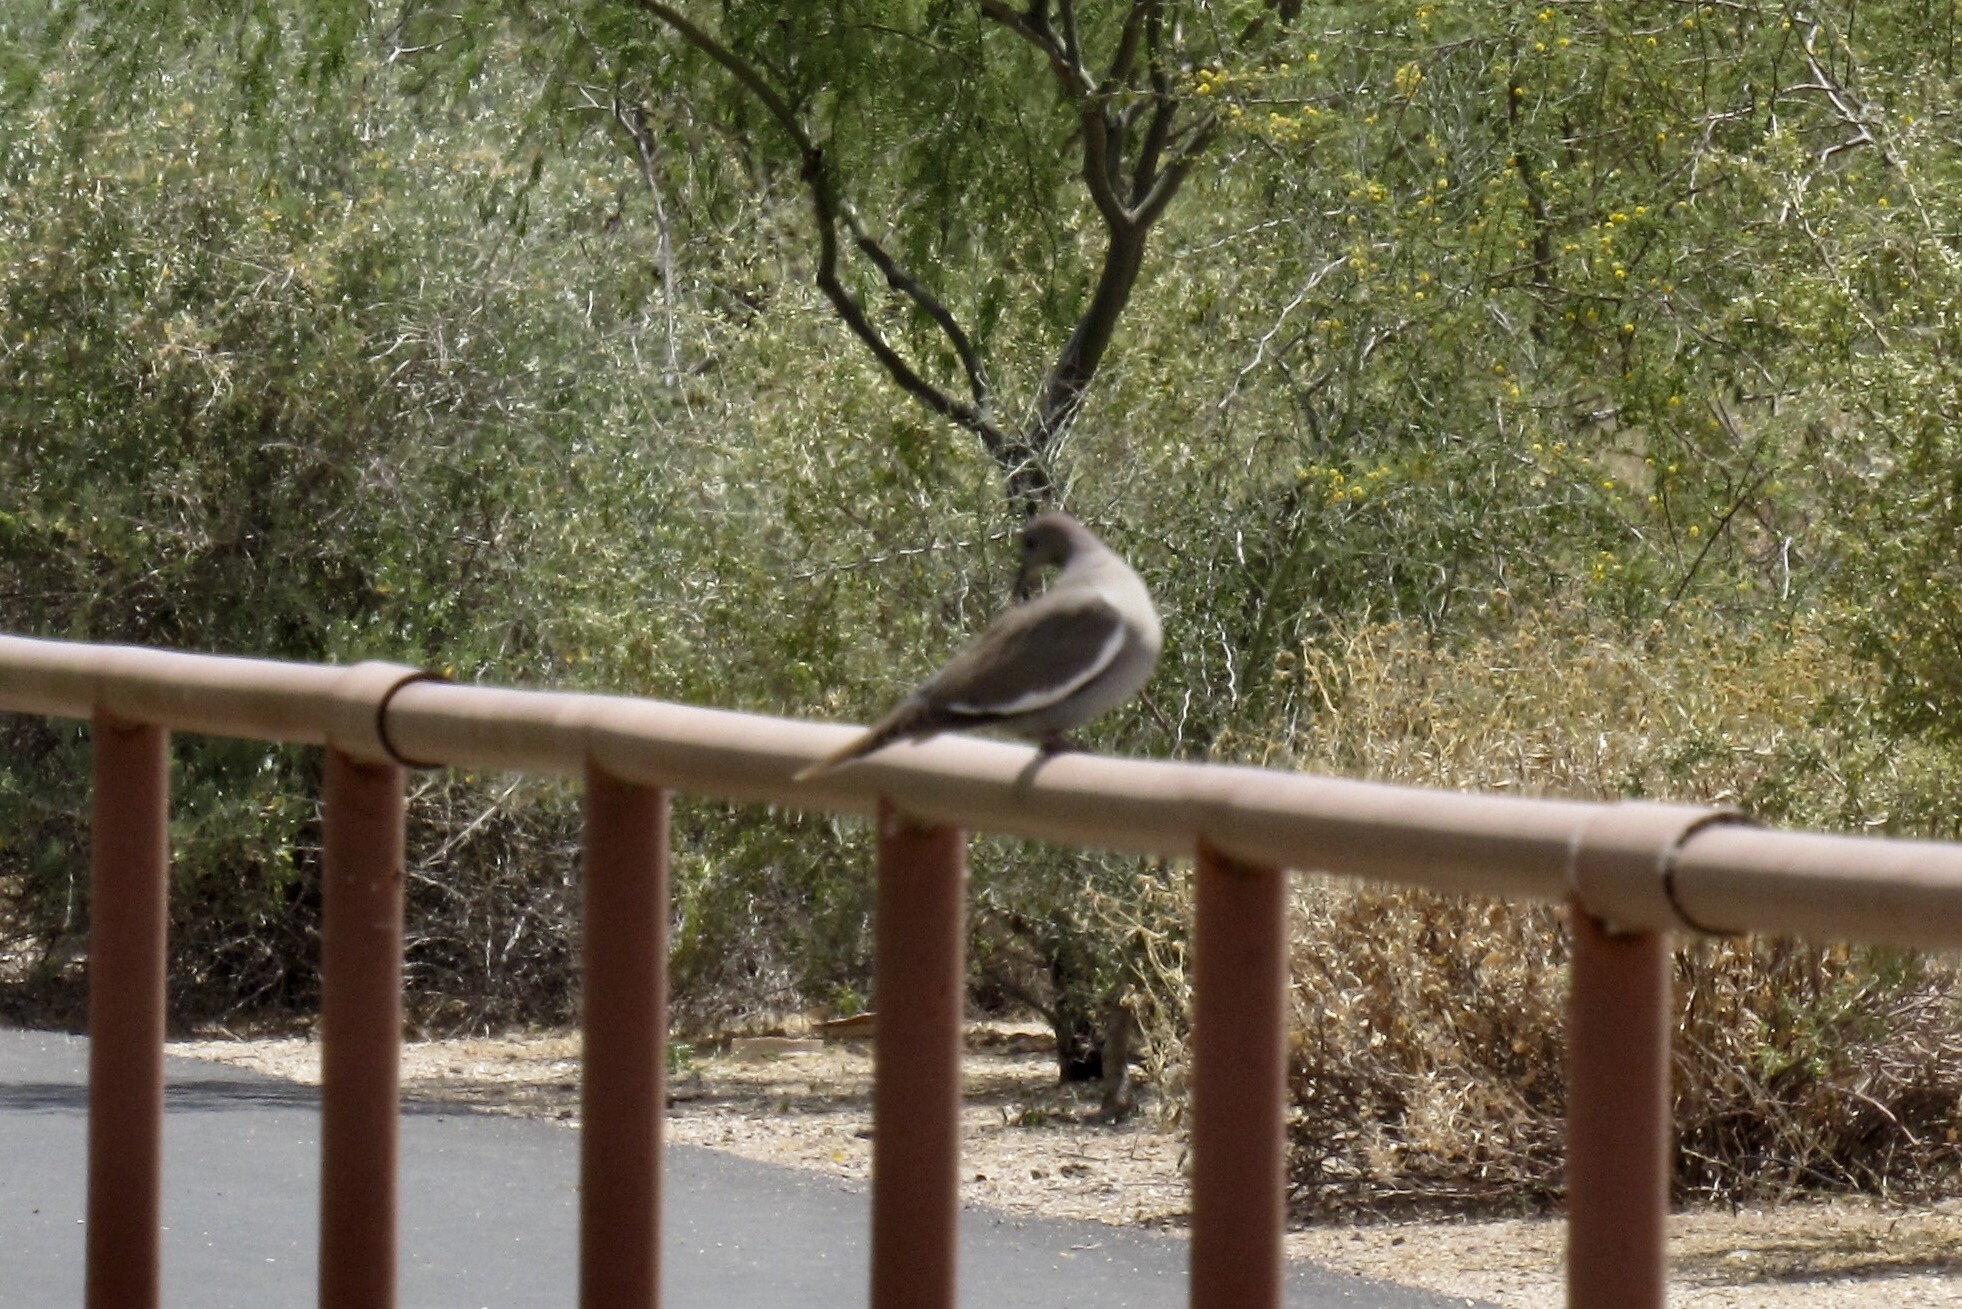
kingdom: Animalia
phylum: Chordata
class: Aves
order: Columbiformes
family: Columbidae
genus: Zenaida
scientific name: Zenaida asiatica
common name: White-winged dove
